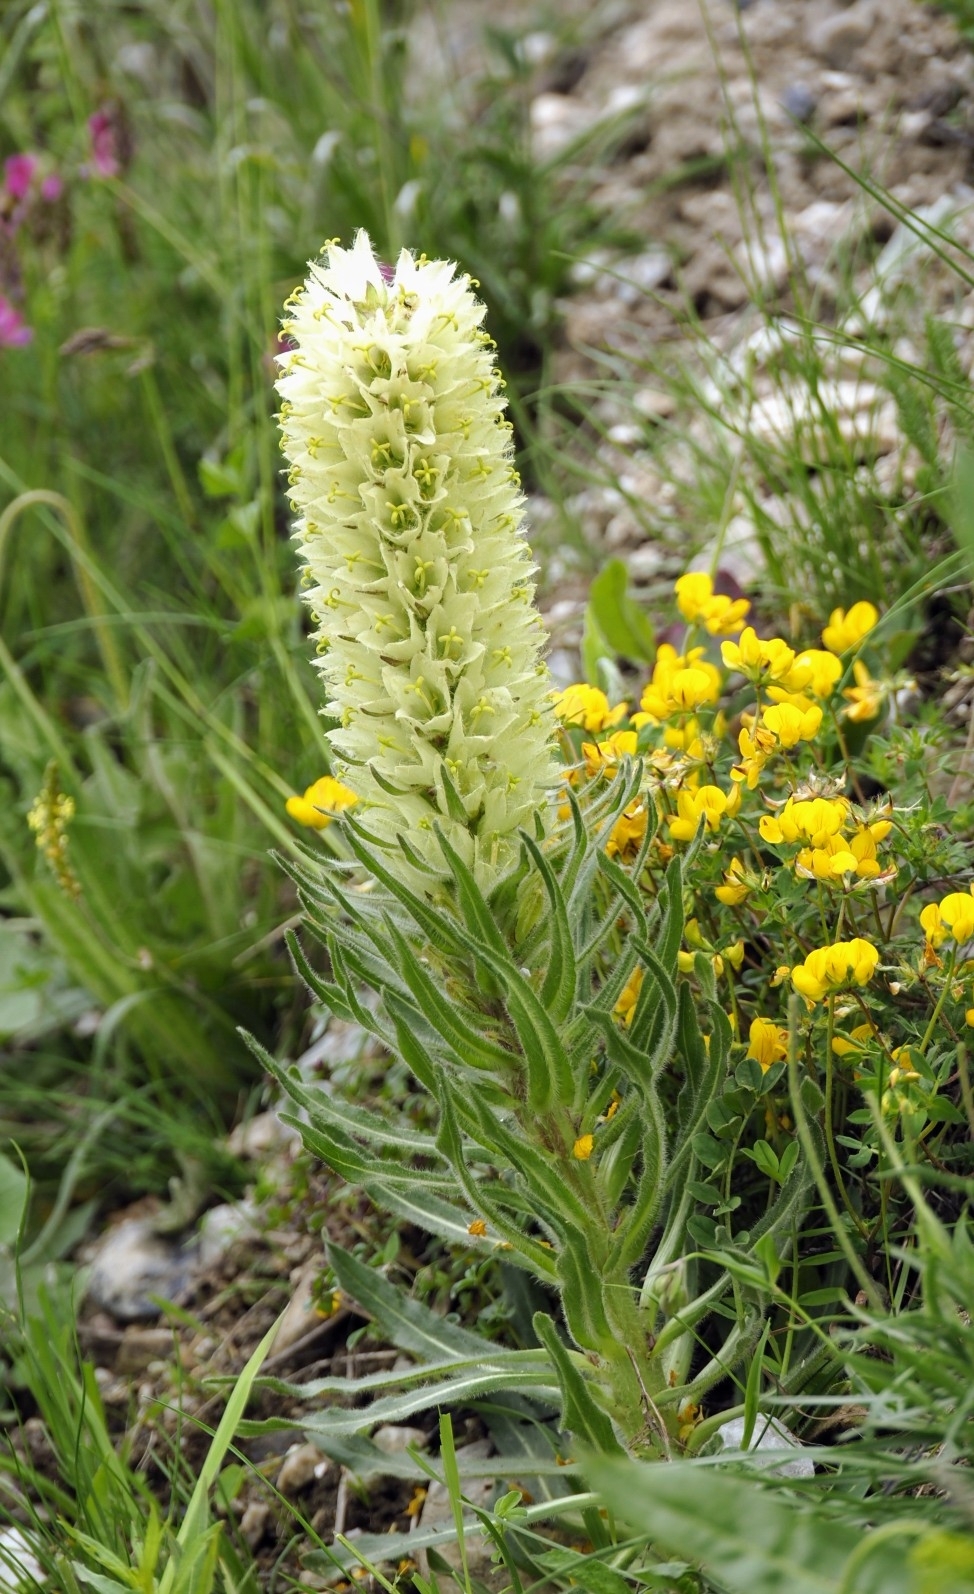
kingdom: Plantae
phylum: Tracheophyta
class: Magnoliopsida
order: Asterales
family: Campanulaceae
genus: Campanula
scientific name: Campanula thyrsoides
